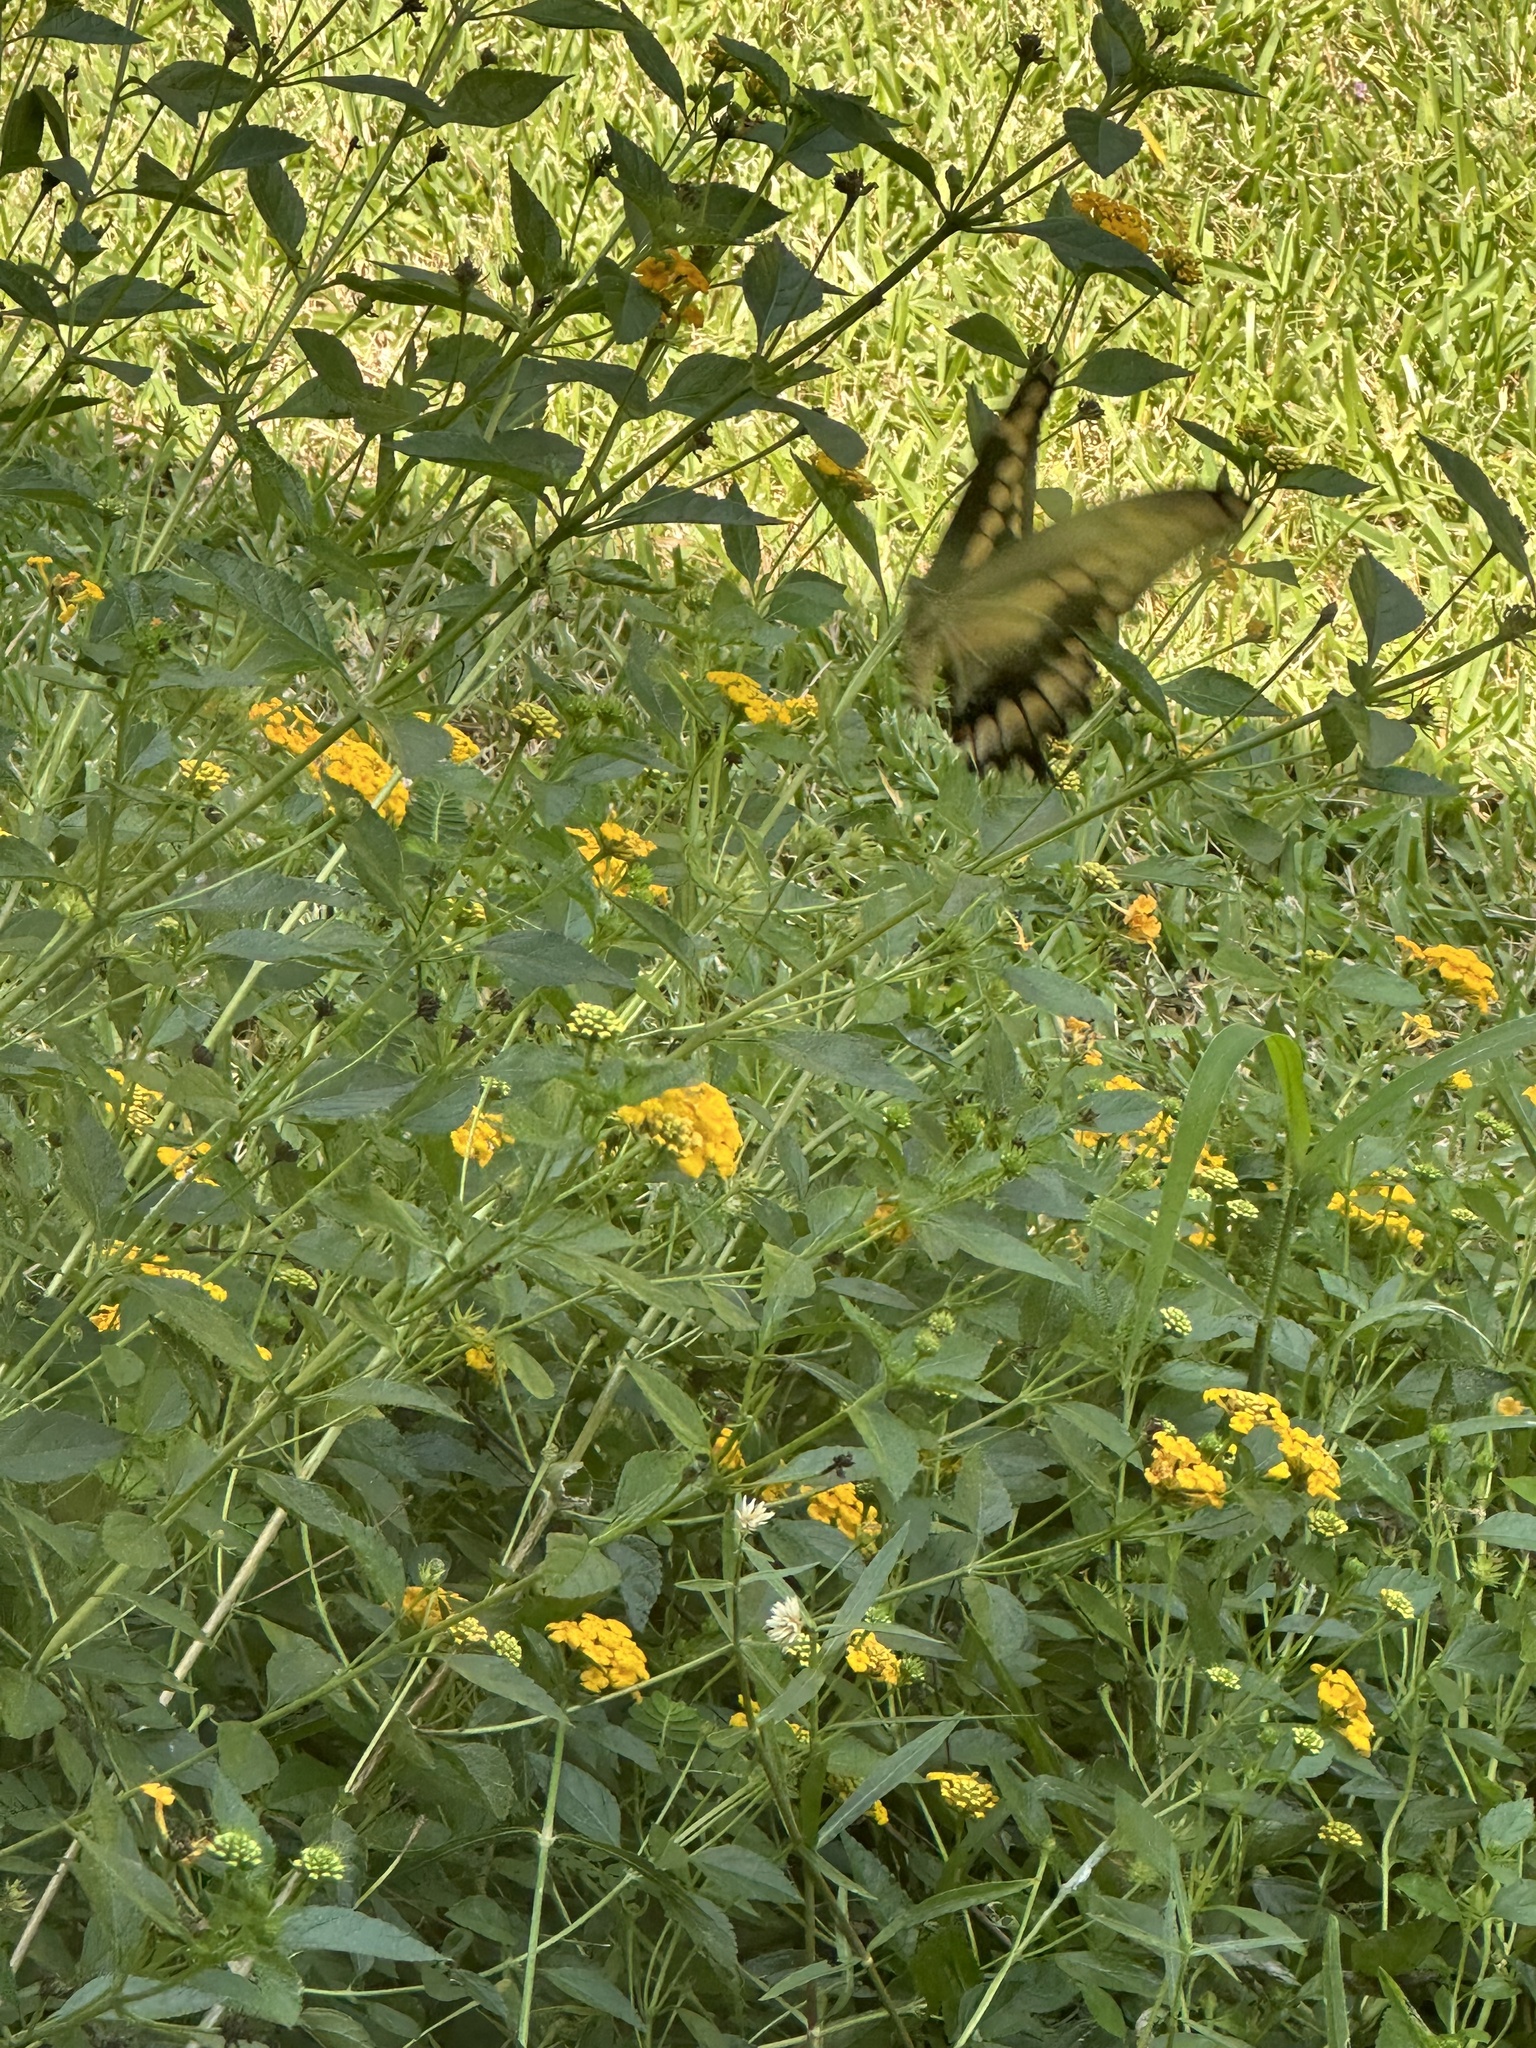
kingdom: Animalia
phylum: Arthropoda
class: Insecta
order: Lepidoptera
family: Papilionidae
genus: Papilio
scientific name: Papilio cresphontes
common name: Giant swallowtail
